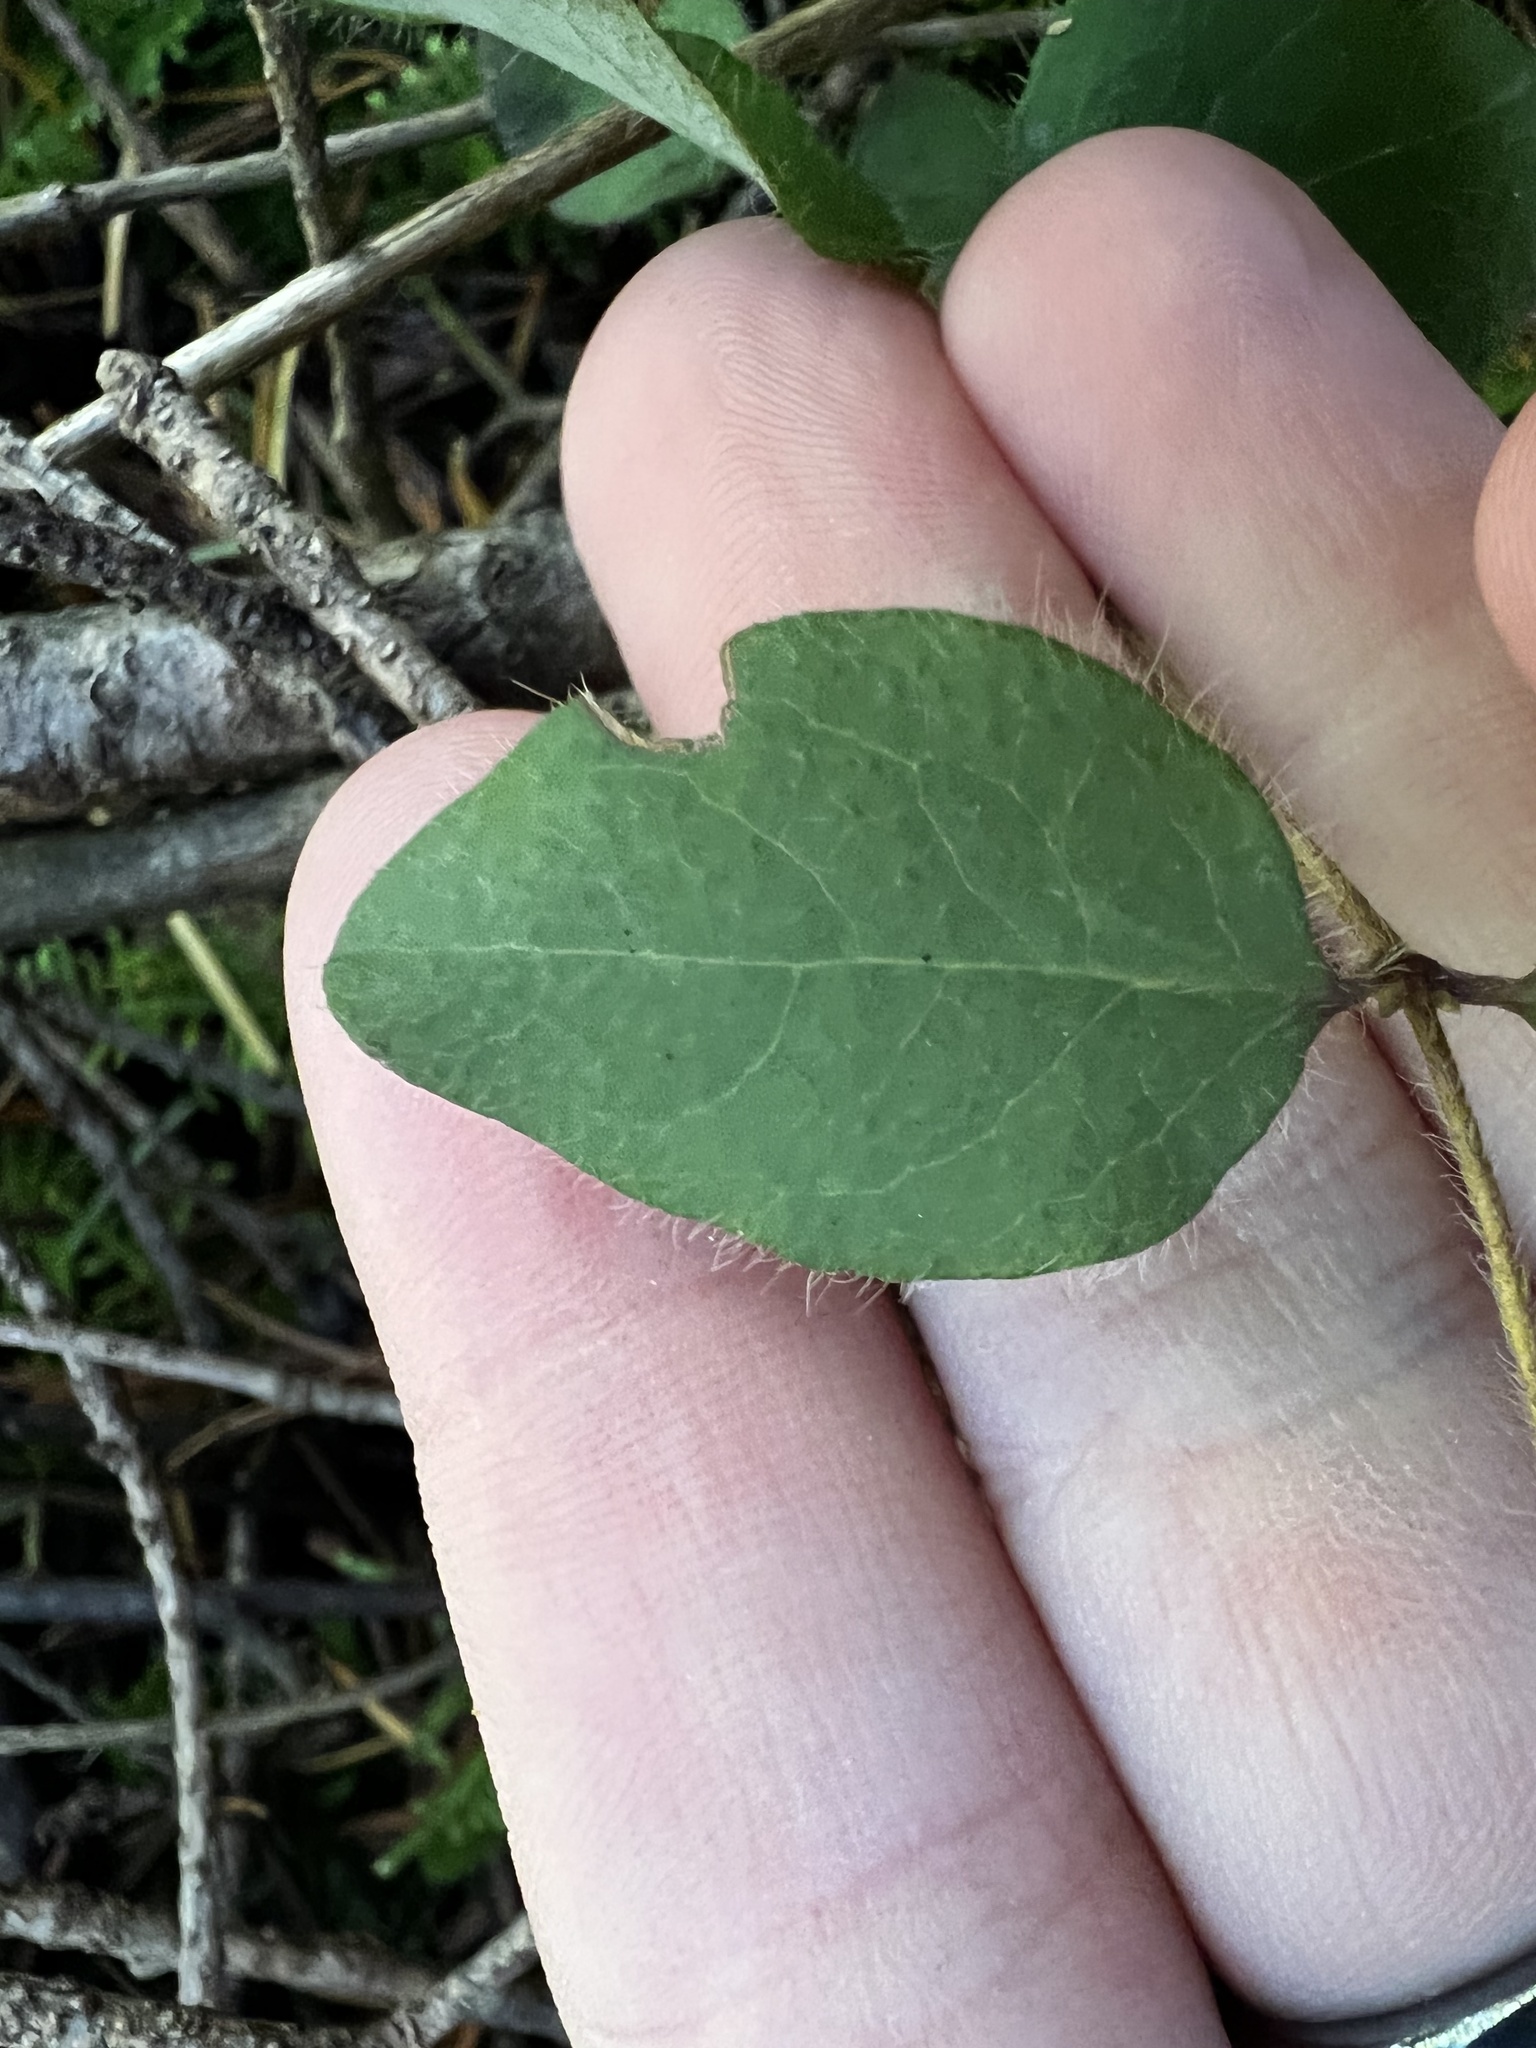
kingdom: Plantae
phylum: Tracheophyta
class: Magnoliopsida
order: Dipsacales
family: Caprifoliaceae
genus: Lonicera
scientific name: Lonicera hispidula
